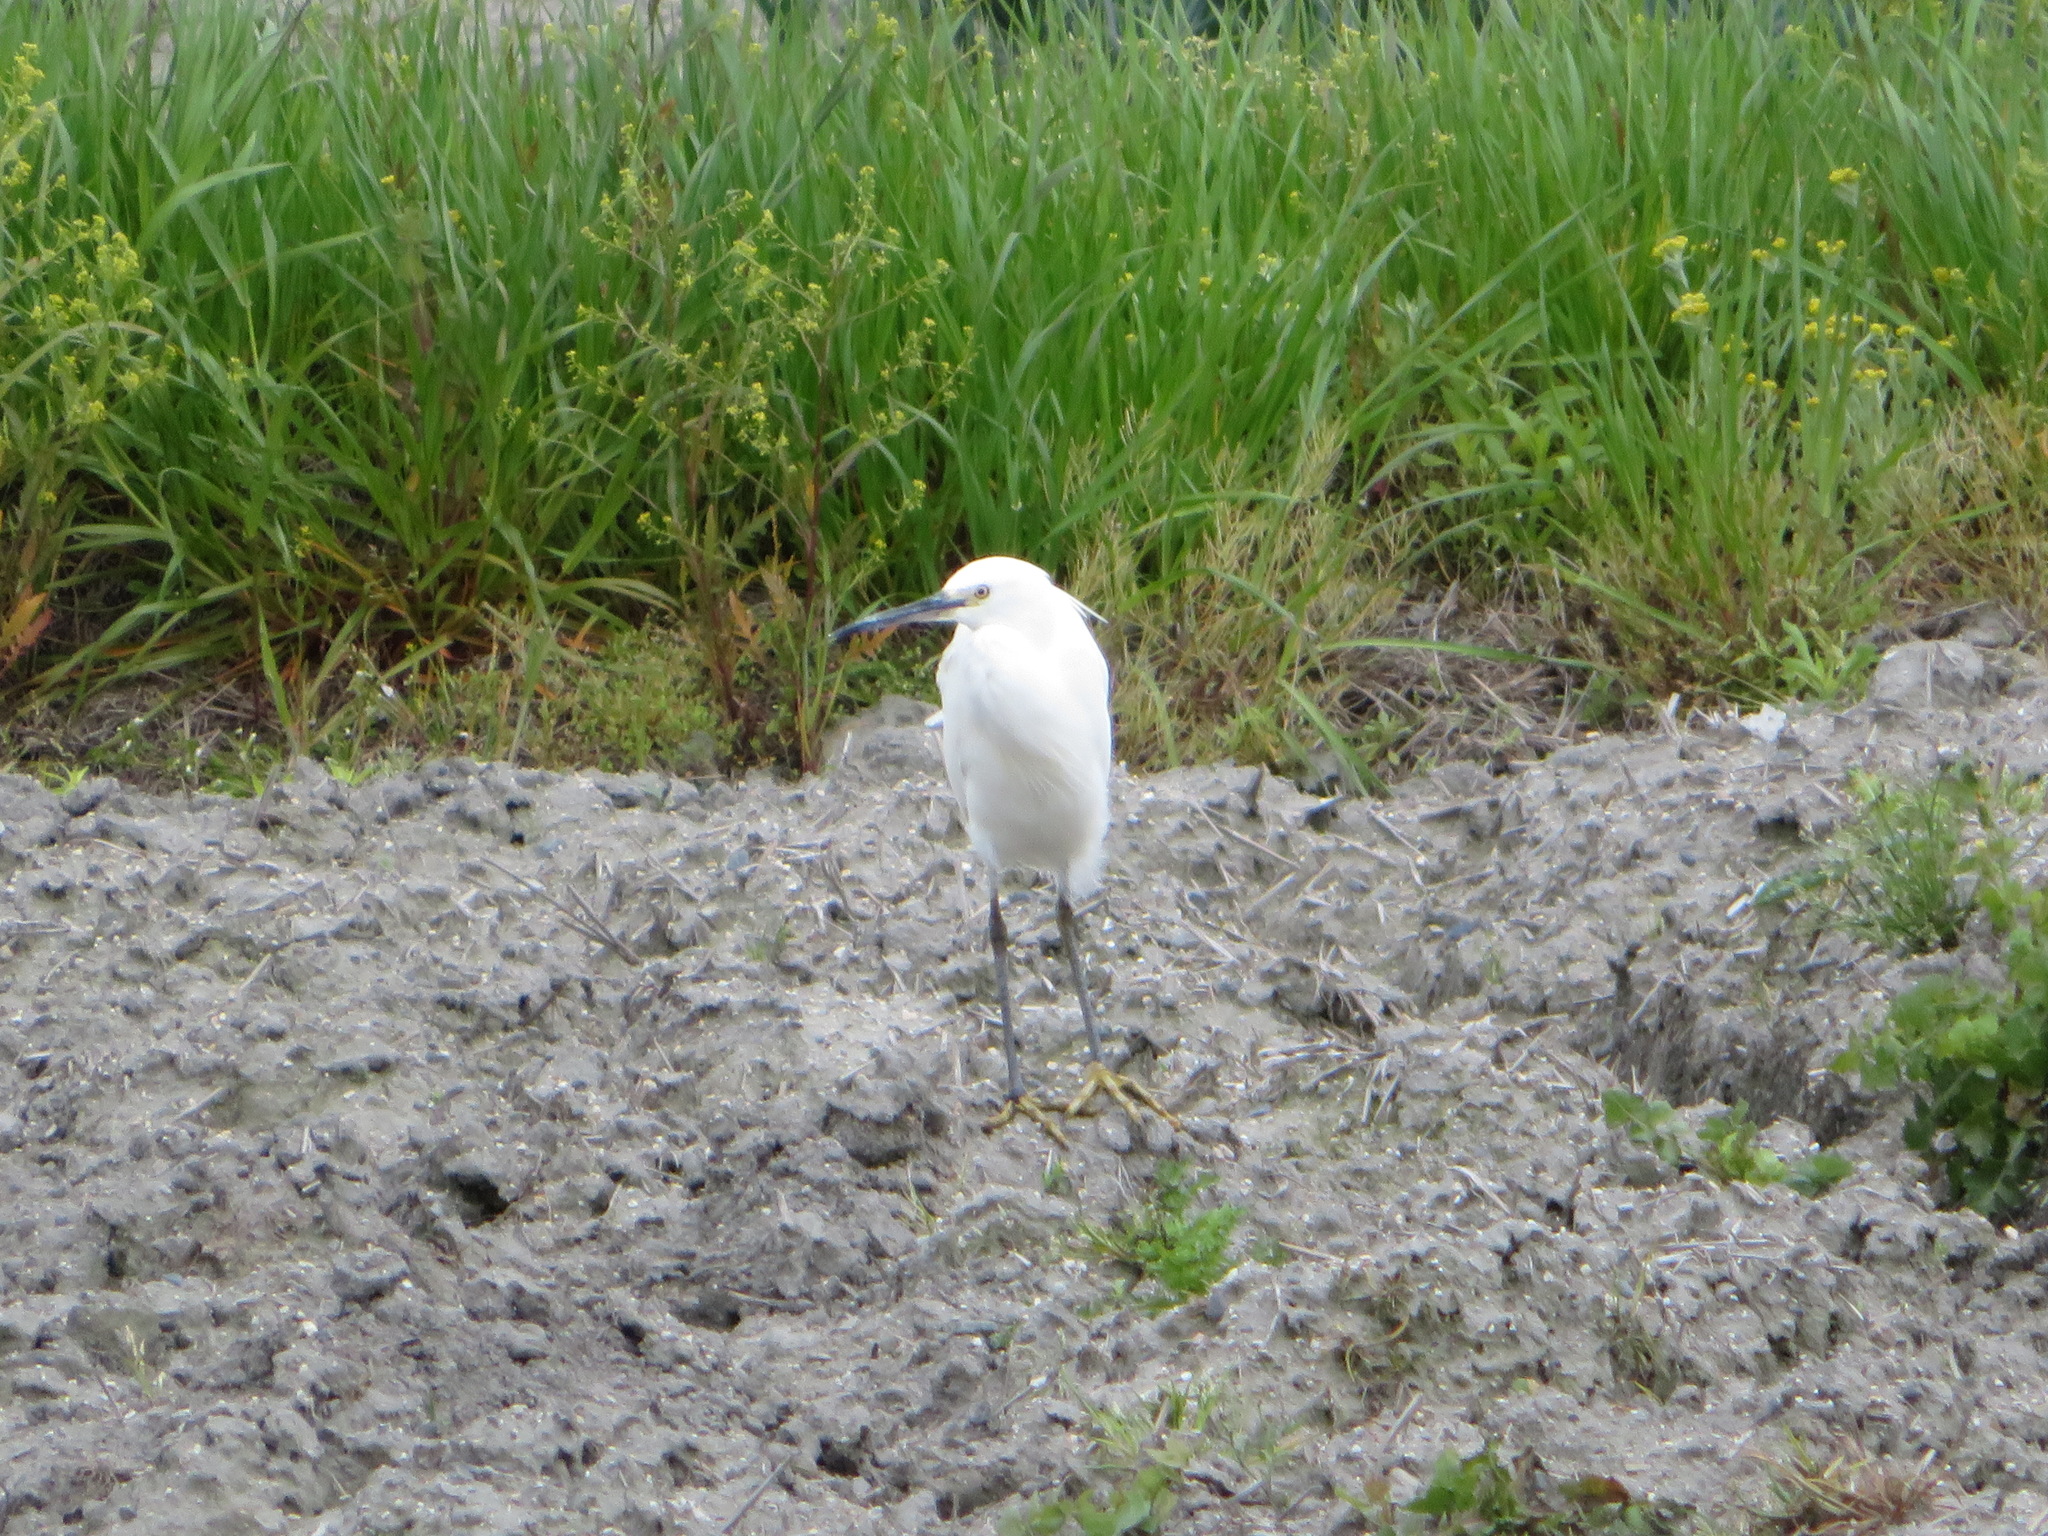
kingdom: Animalia
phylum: Chordata
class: Aves
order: Pelecaniformes
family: Ardeidae
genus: Egretta
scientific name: Egretta garzetta
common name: Little egret
